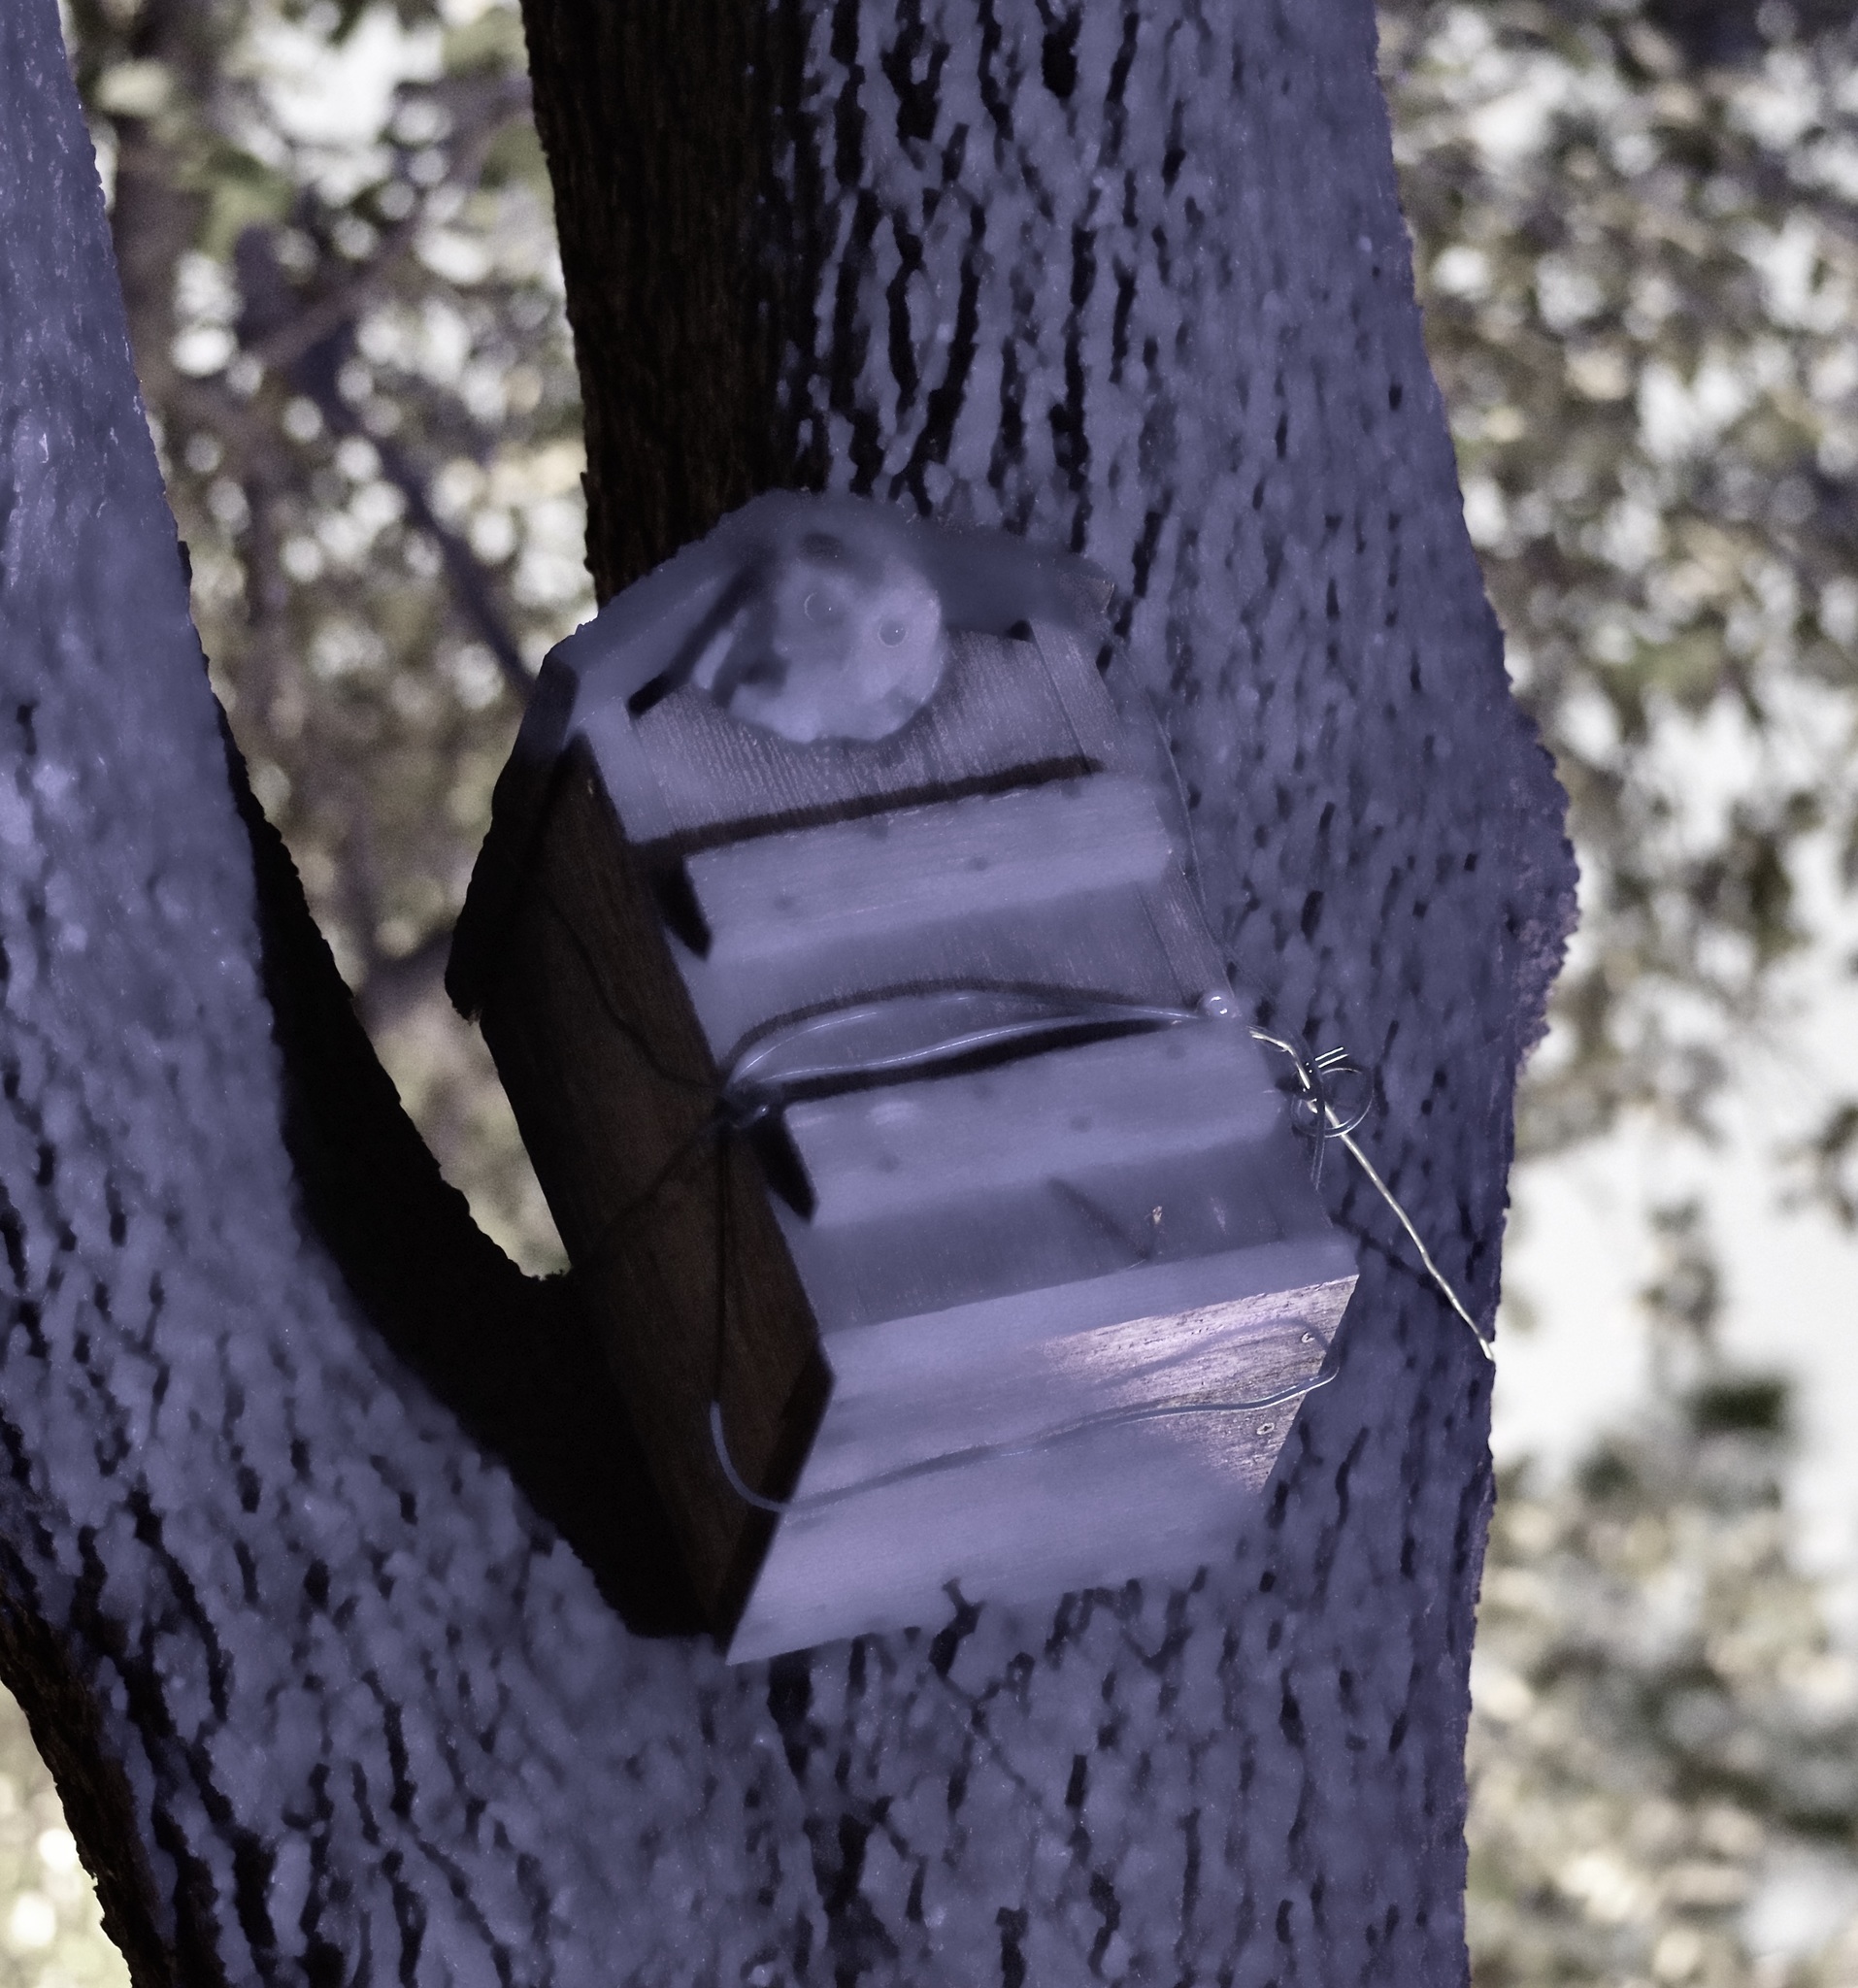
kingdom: Animalia
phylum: Chordata
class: Aves
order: Strigiformes
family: Strigidae
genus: Megascops
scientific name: Megascops asio
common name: Eastern screech-owl
